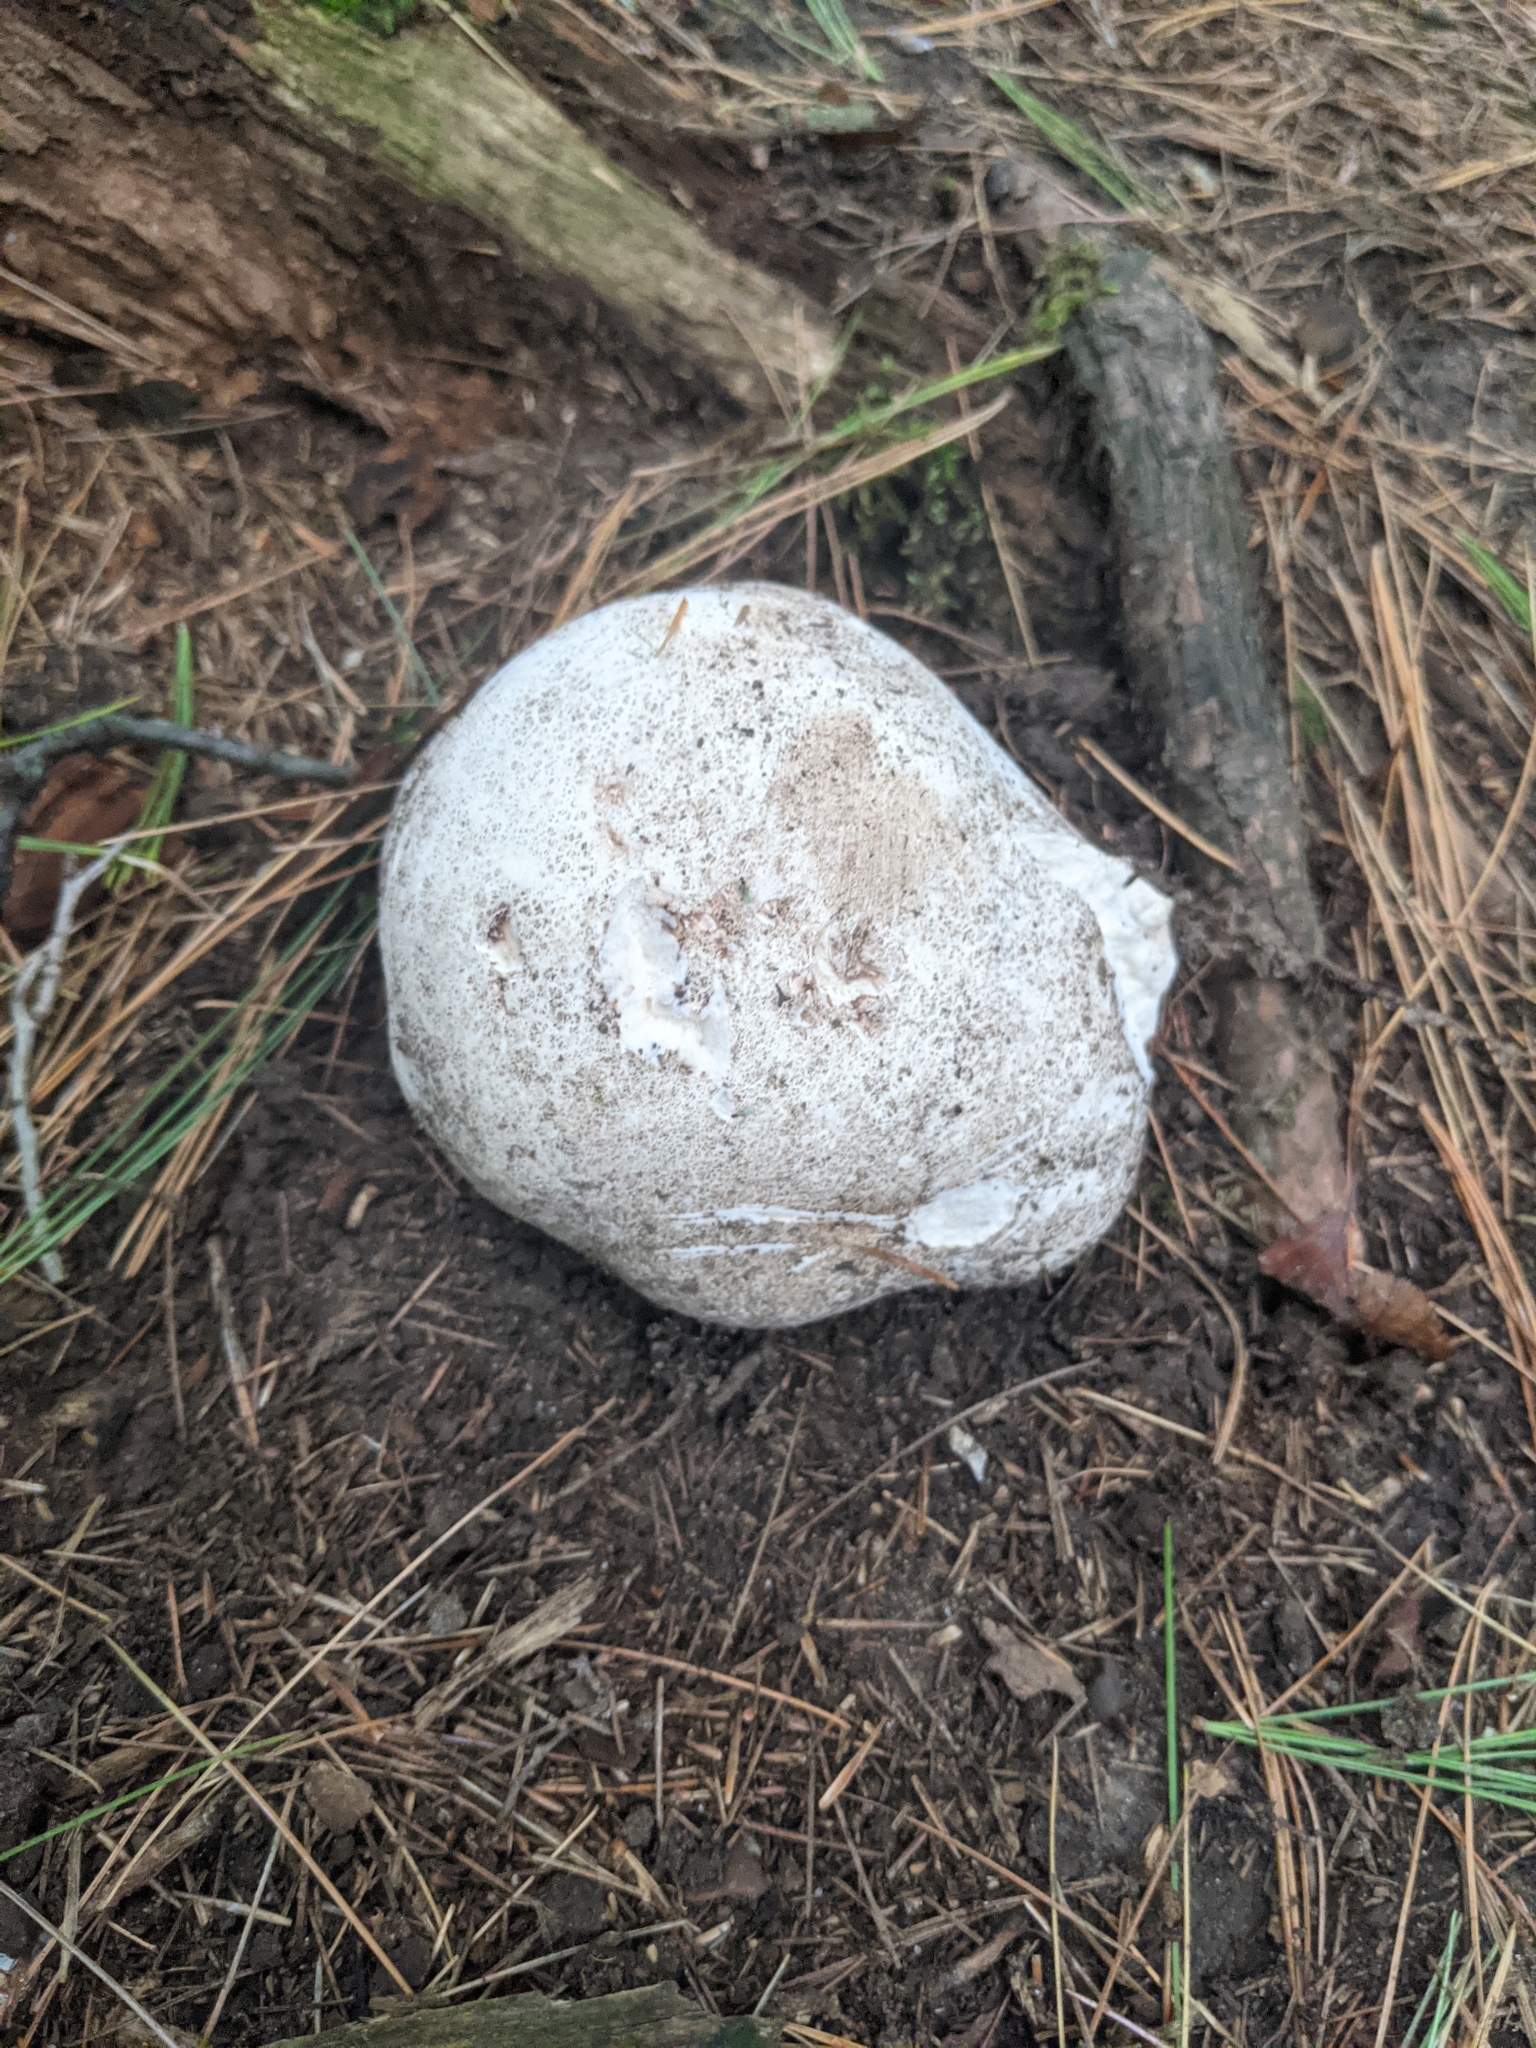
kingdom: Fungi
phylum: Basidiomycota
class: Agaricomycetes
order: Agaricales
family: Lycoperdaceae
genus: Calvatia
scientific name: Calvatia gigantea
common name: Giant puffball
